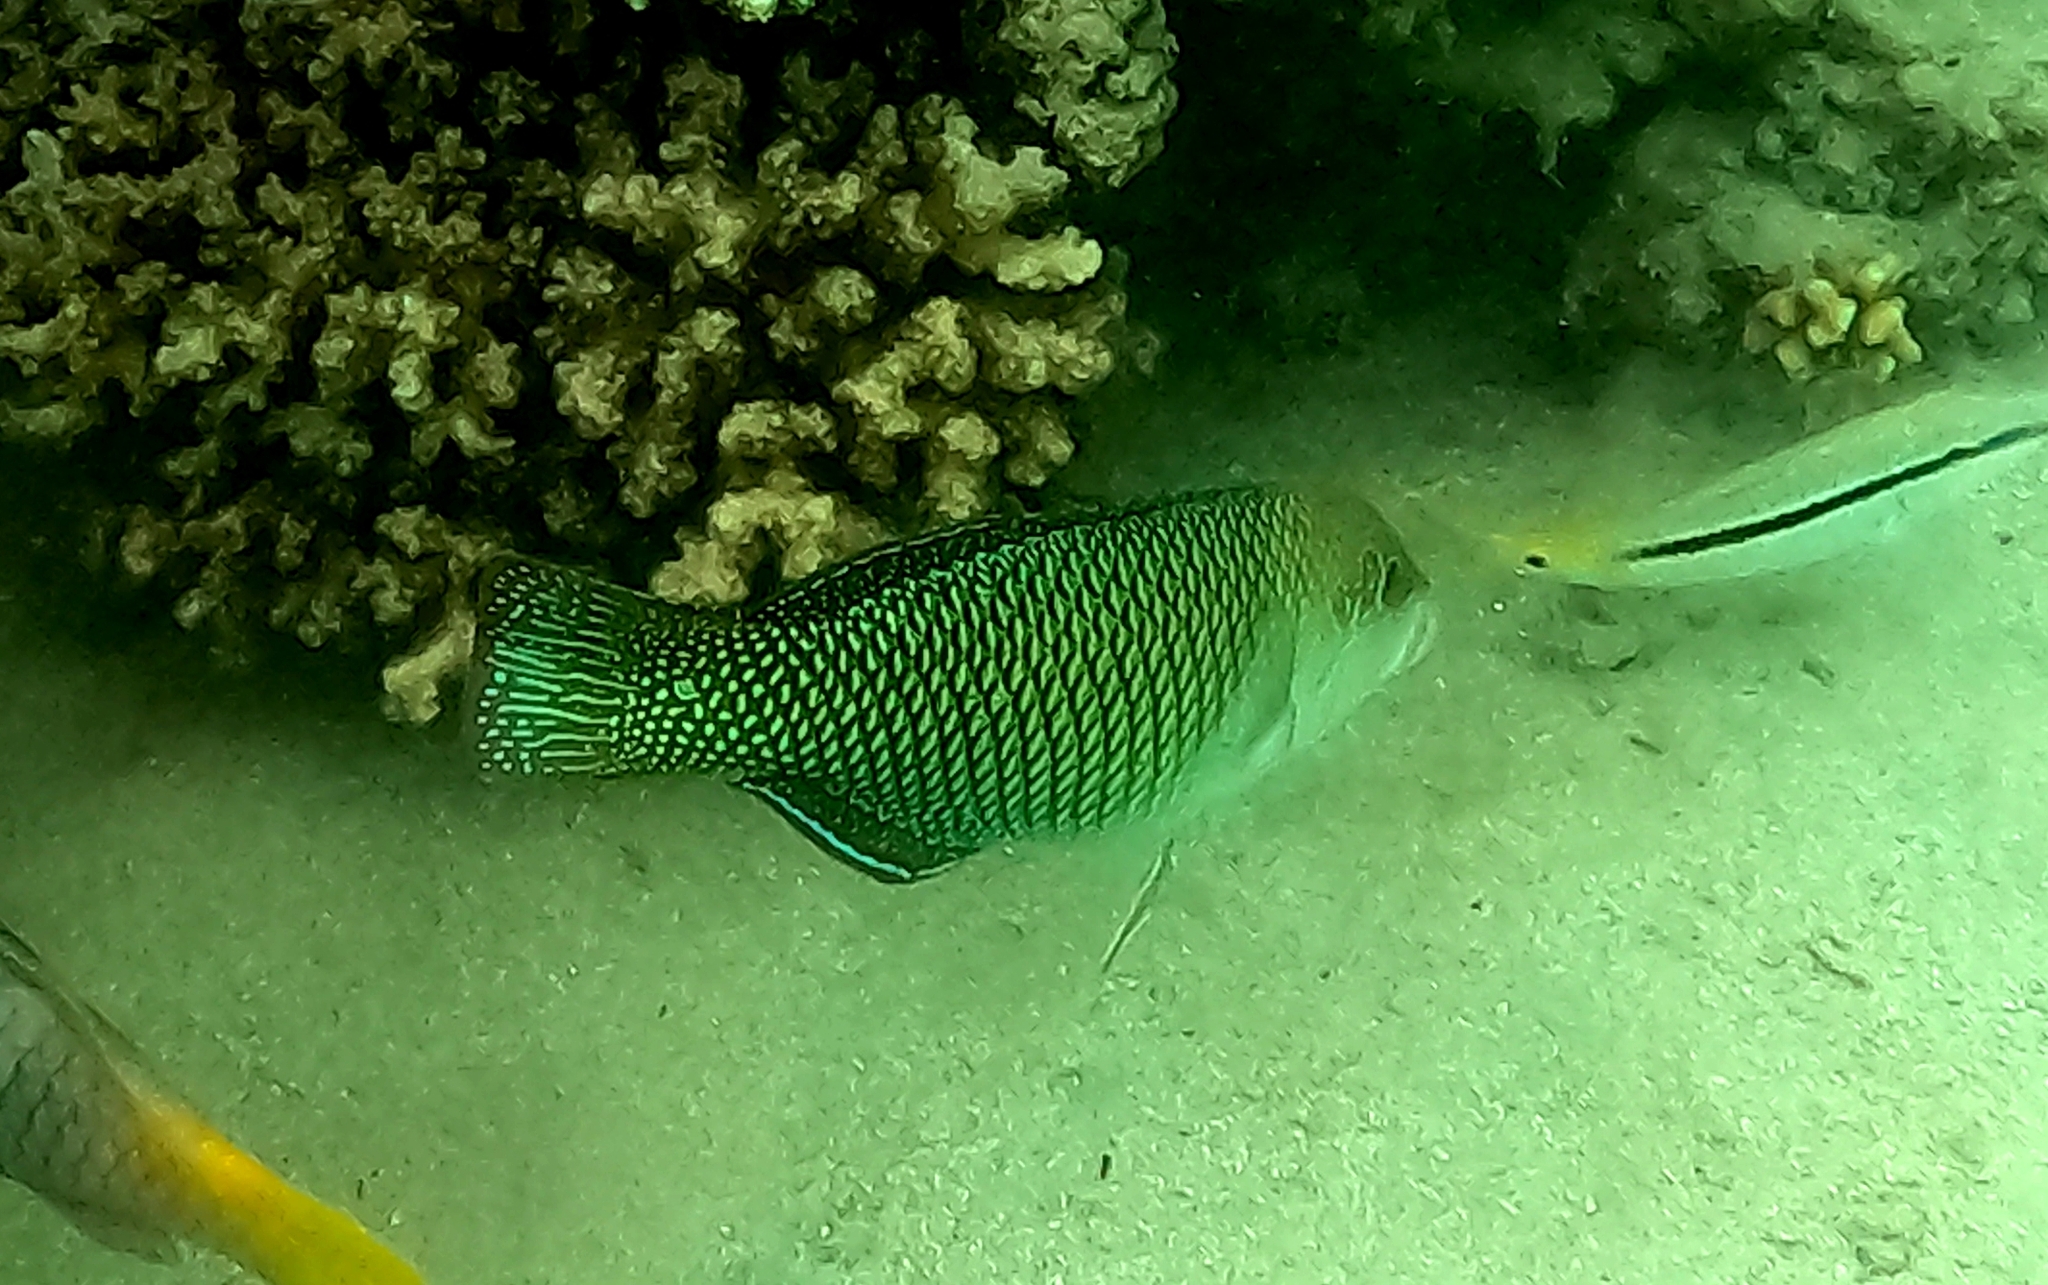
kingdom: Animalia
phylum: Chordata
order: Perciformes
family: Labridae
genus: Hemigymnus
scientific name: Hemigymnus melapterus
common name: Blackeye thicklip
